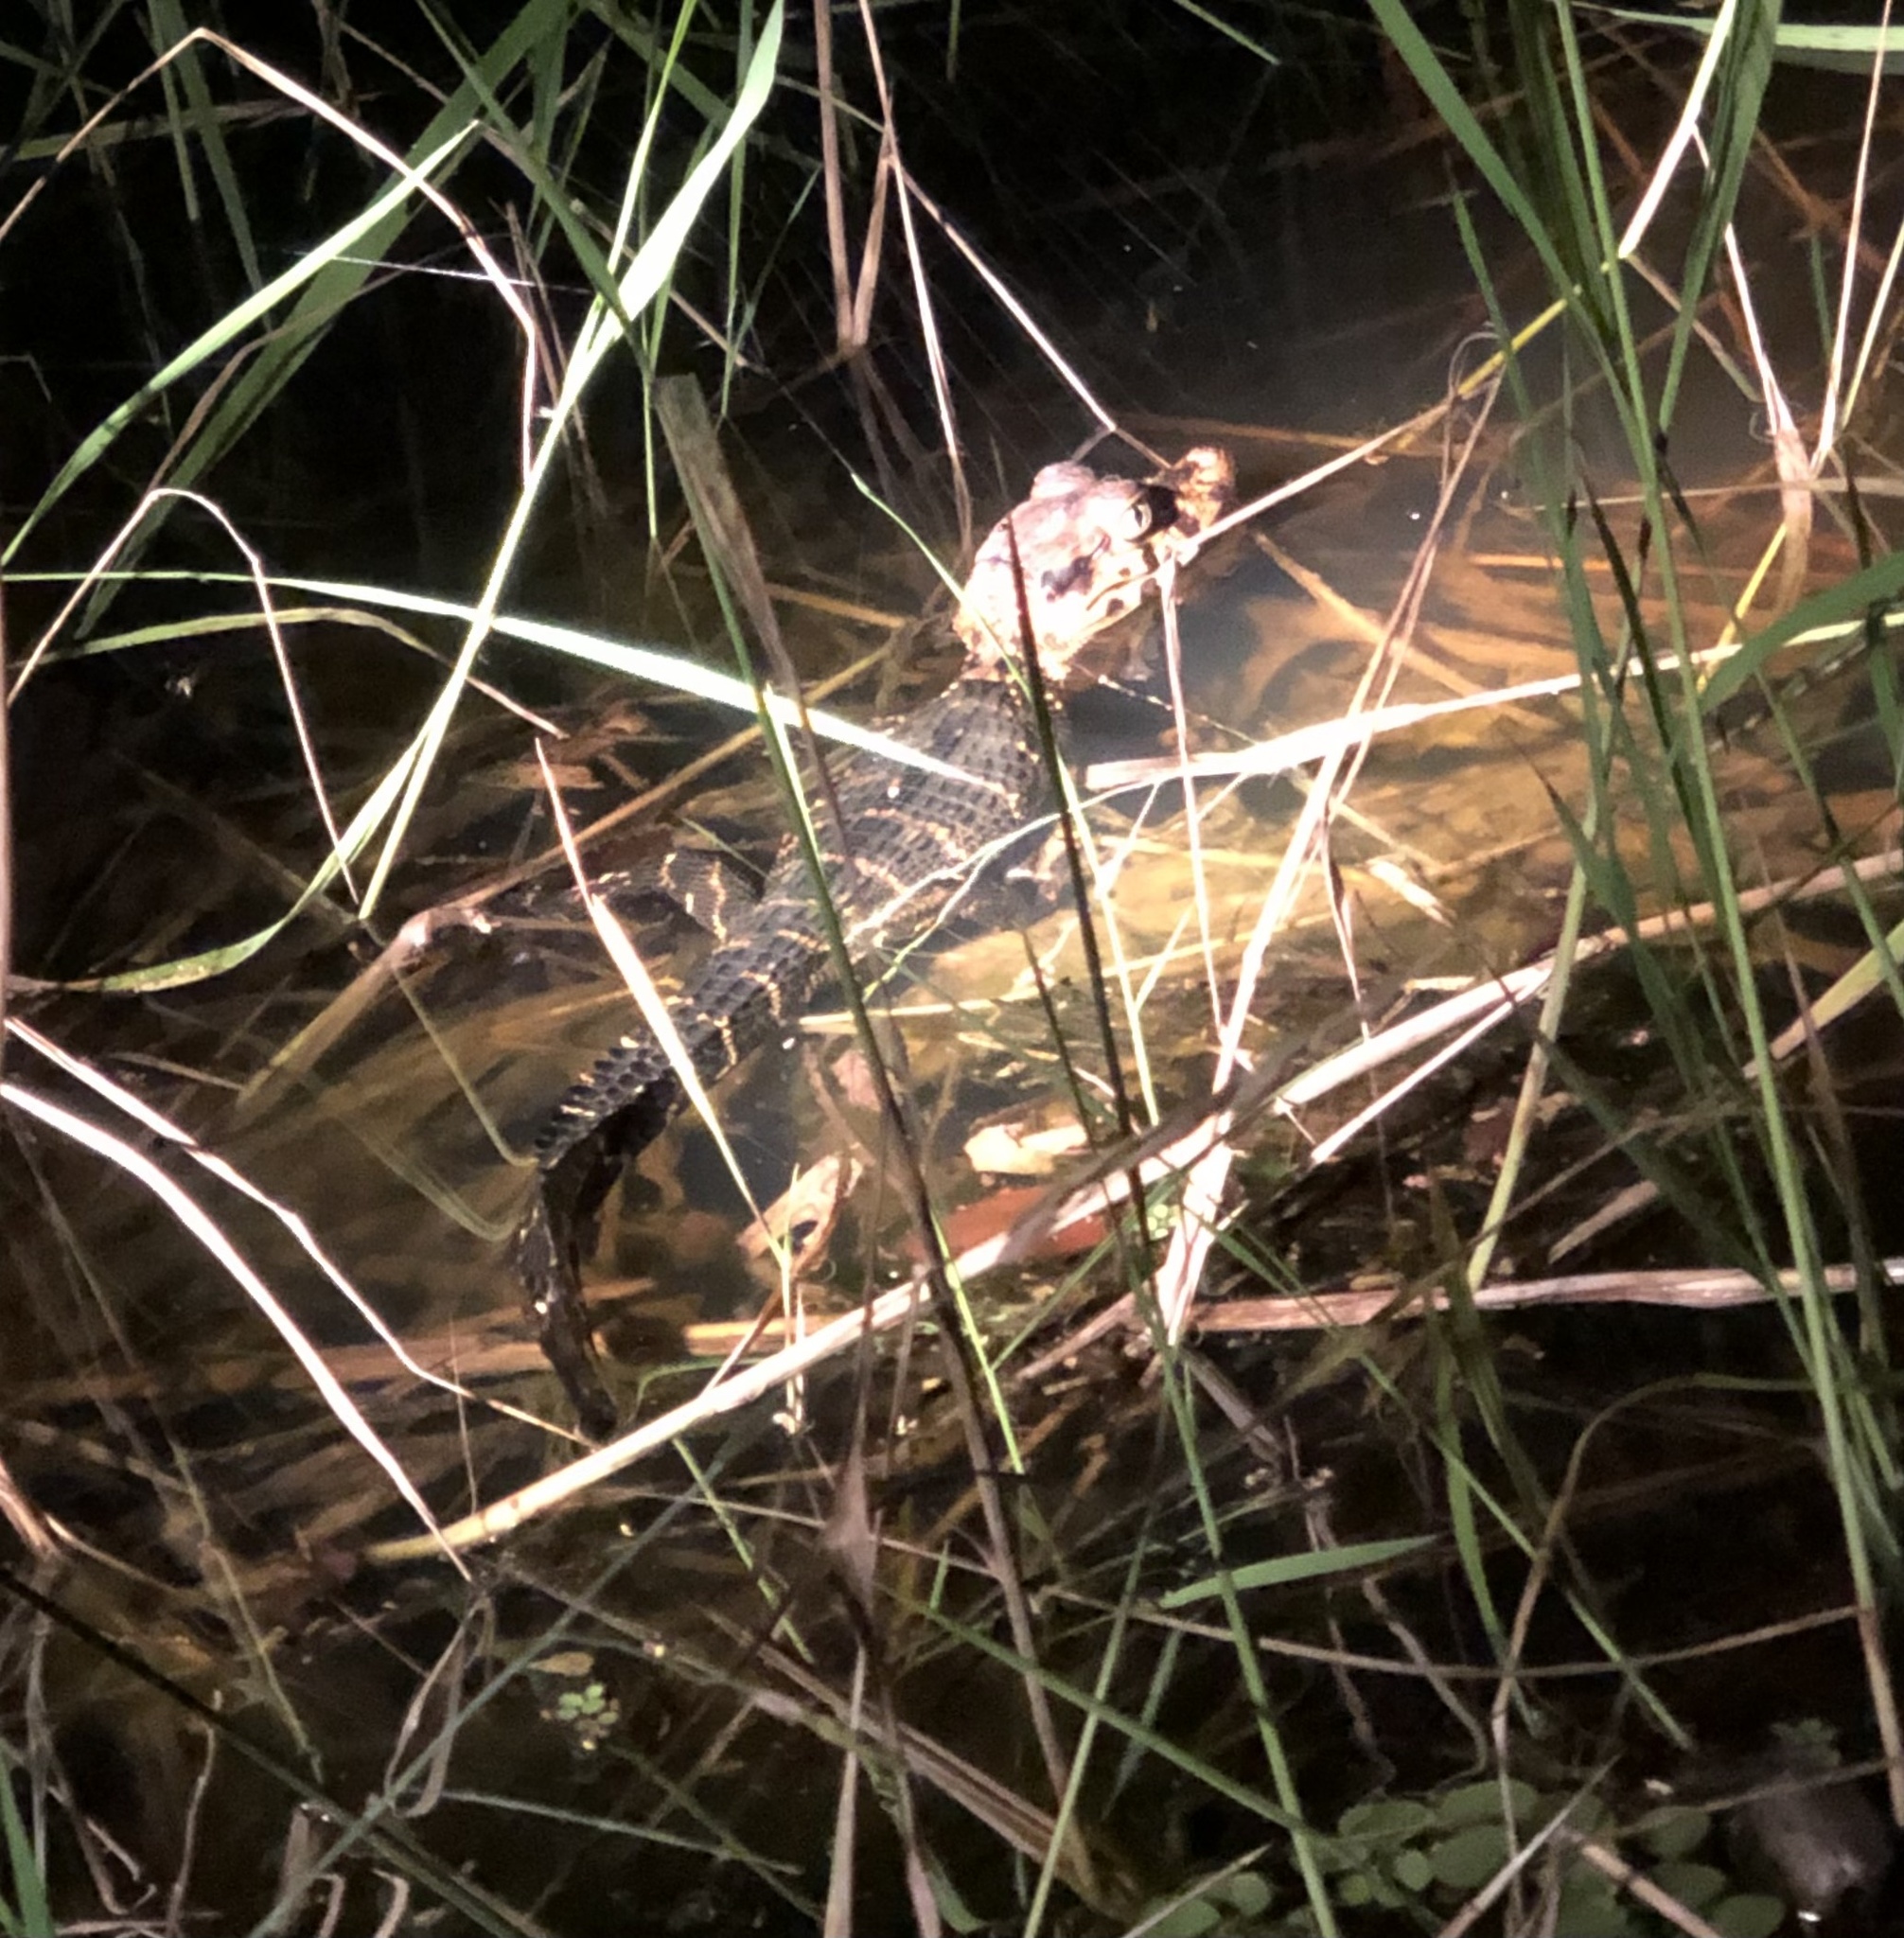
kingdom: Animalia
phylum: Chordata
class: Crocodylia
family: Alligatoridae
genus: Melanosuchus
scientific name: Melanosuchus niger
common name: Black caiman
